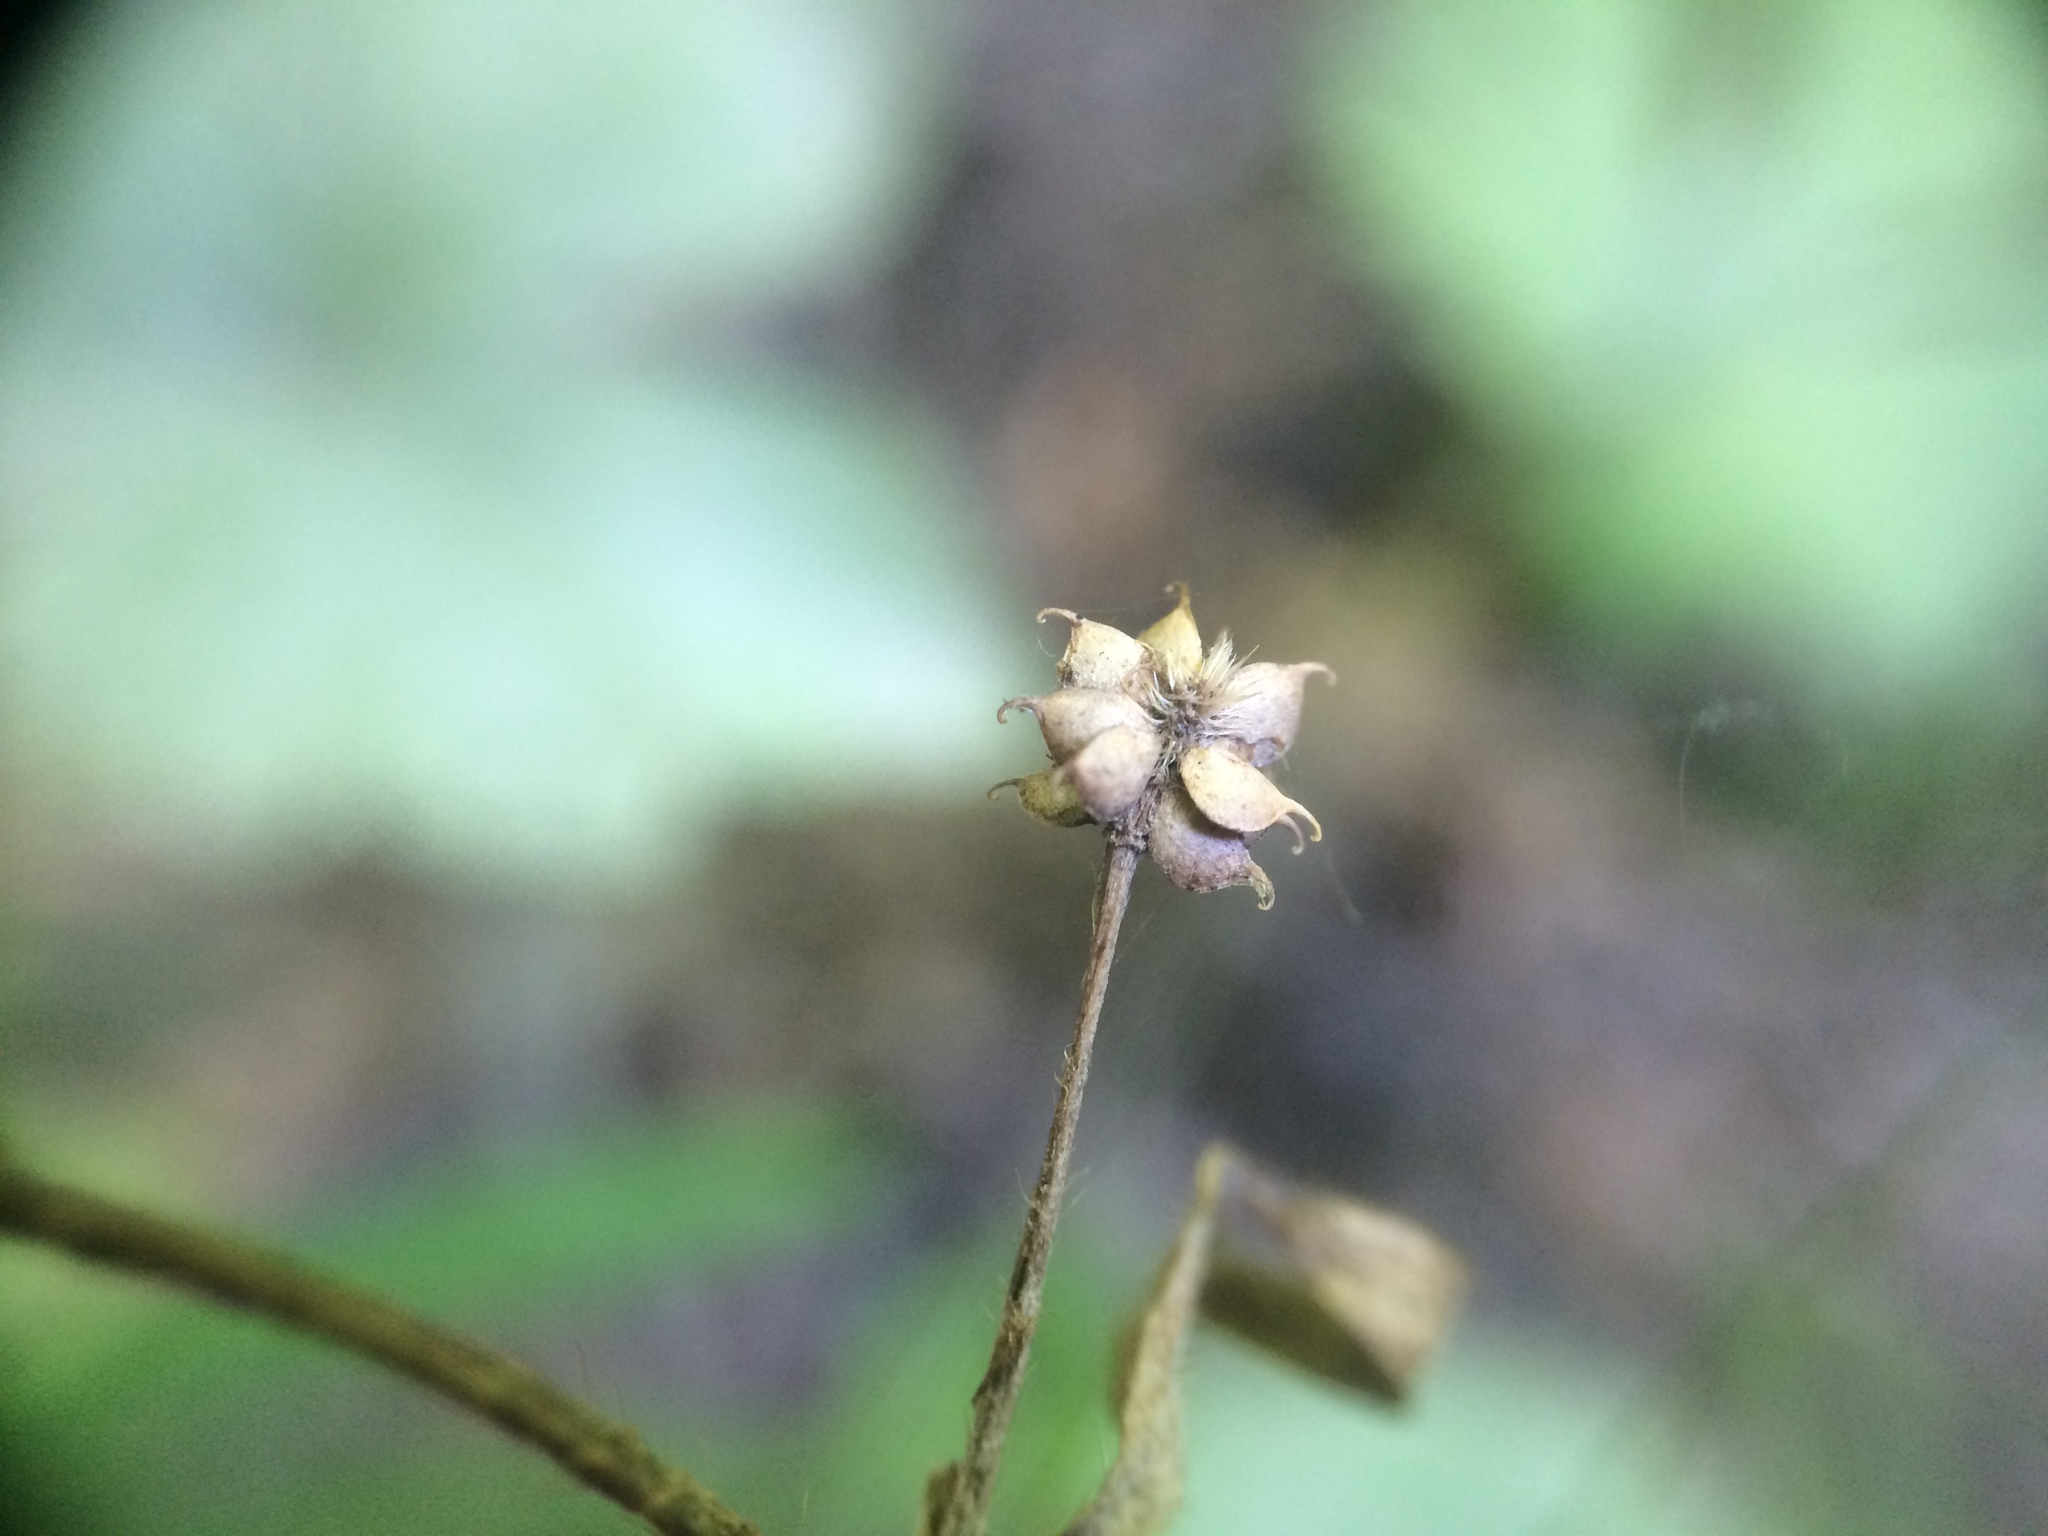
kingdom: Plantae
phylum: Tracheophyta
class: Magnoliopsida
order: Ranunculales
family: Ranunculaceae
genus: Ranunculus
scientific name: Ranunculus recurvatus
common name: Blisterwort
